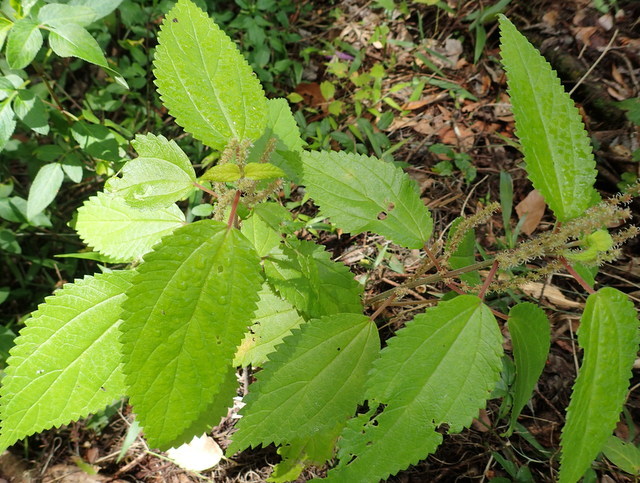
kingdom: Plantae
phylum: Tracheophyta
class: Magnoliopsida
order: Rosales
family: Urticaceae
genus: Boehmeria
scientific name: Boehmeria cylindrica
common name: Bog-hemp
